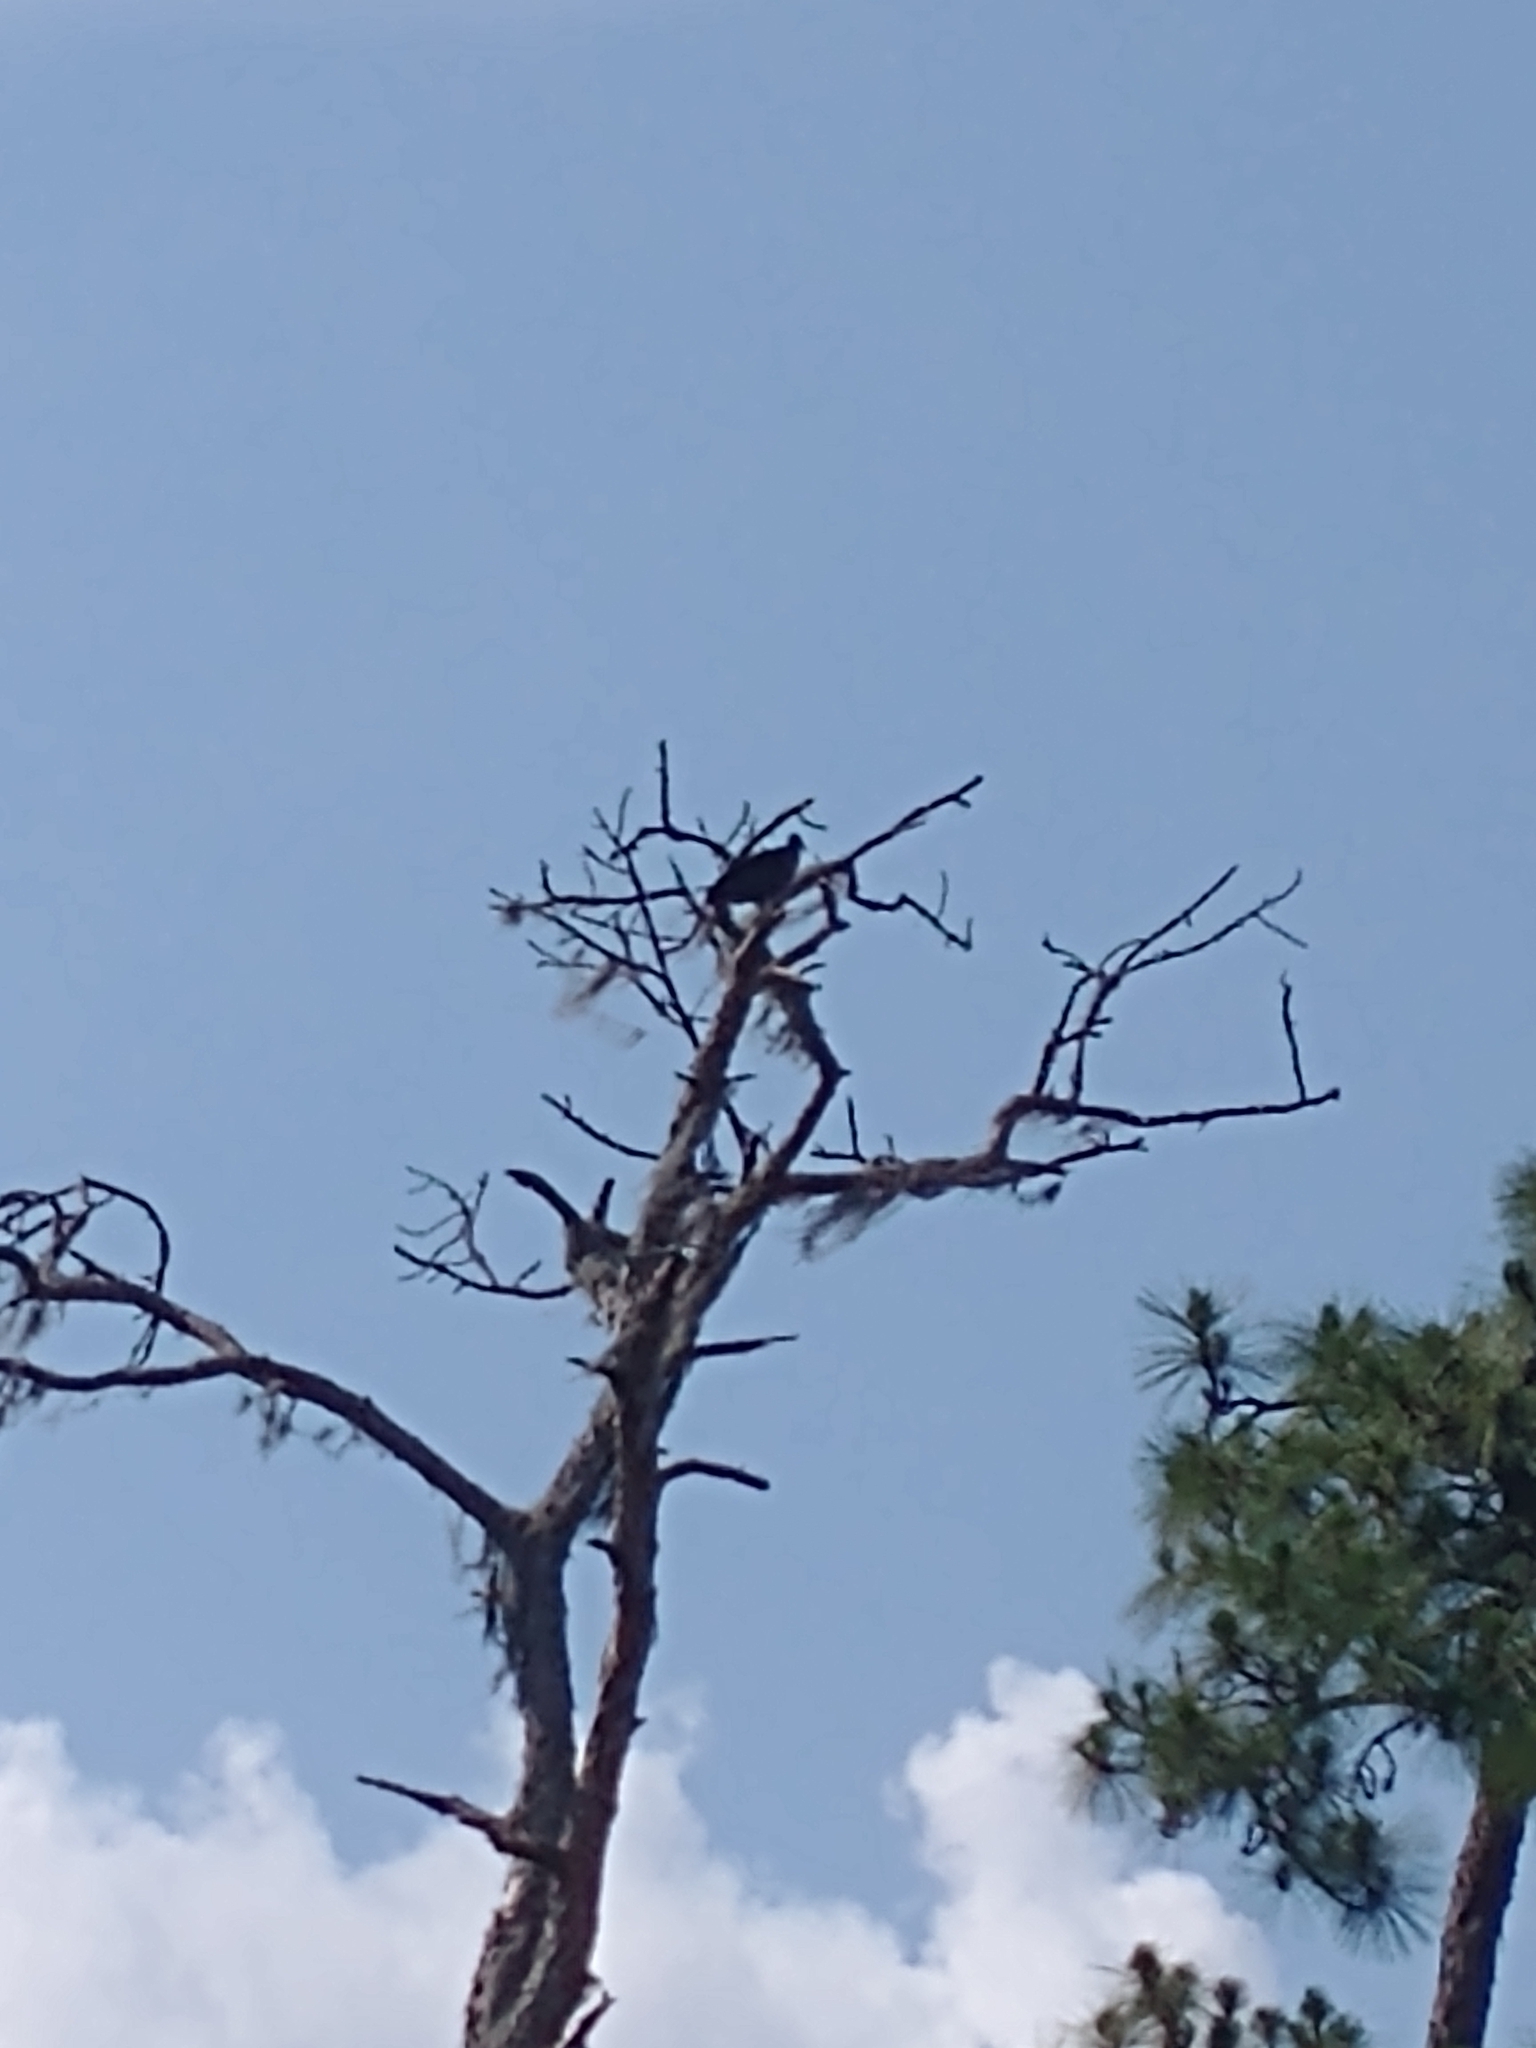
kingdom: Animalia
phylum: Chordata
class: Aves
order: Accipitriformes
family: Cathartidae
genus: Coragyps
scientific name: Coragyps atratus
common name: Black vulture
